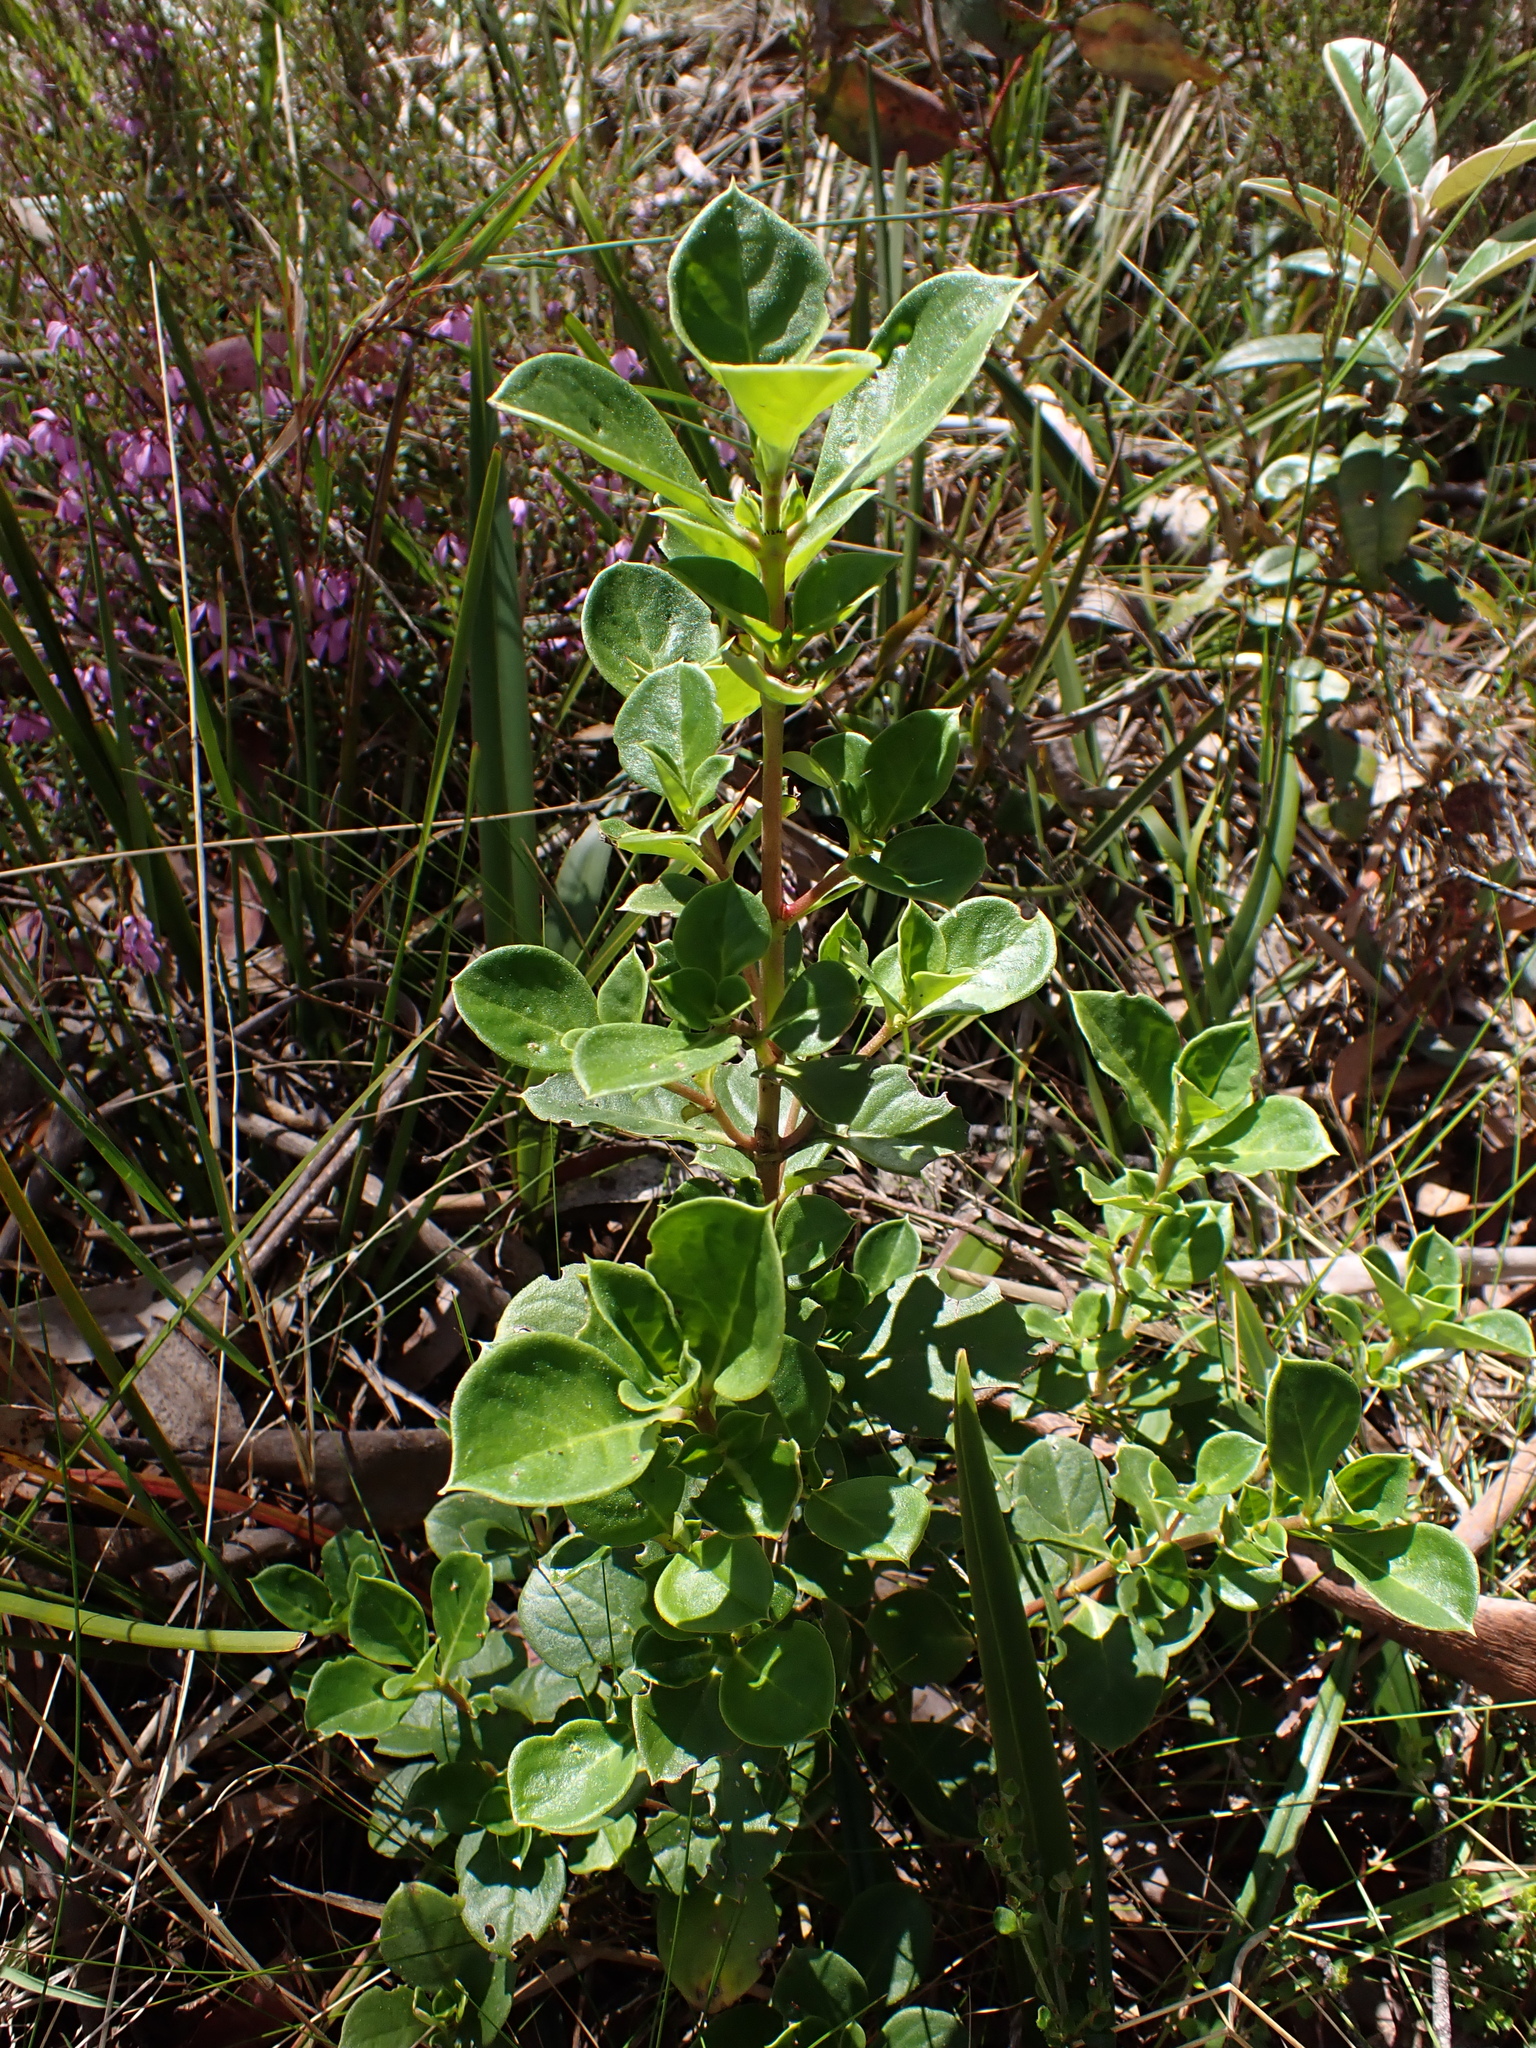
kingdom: Plantae
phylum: Tracheophyta
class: Magnoliopsida
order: Gentianales
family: Rubiaceae
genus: Coprosma
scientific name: Coprosma hirtella
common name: Rough coprosma
